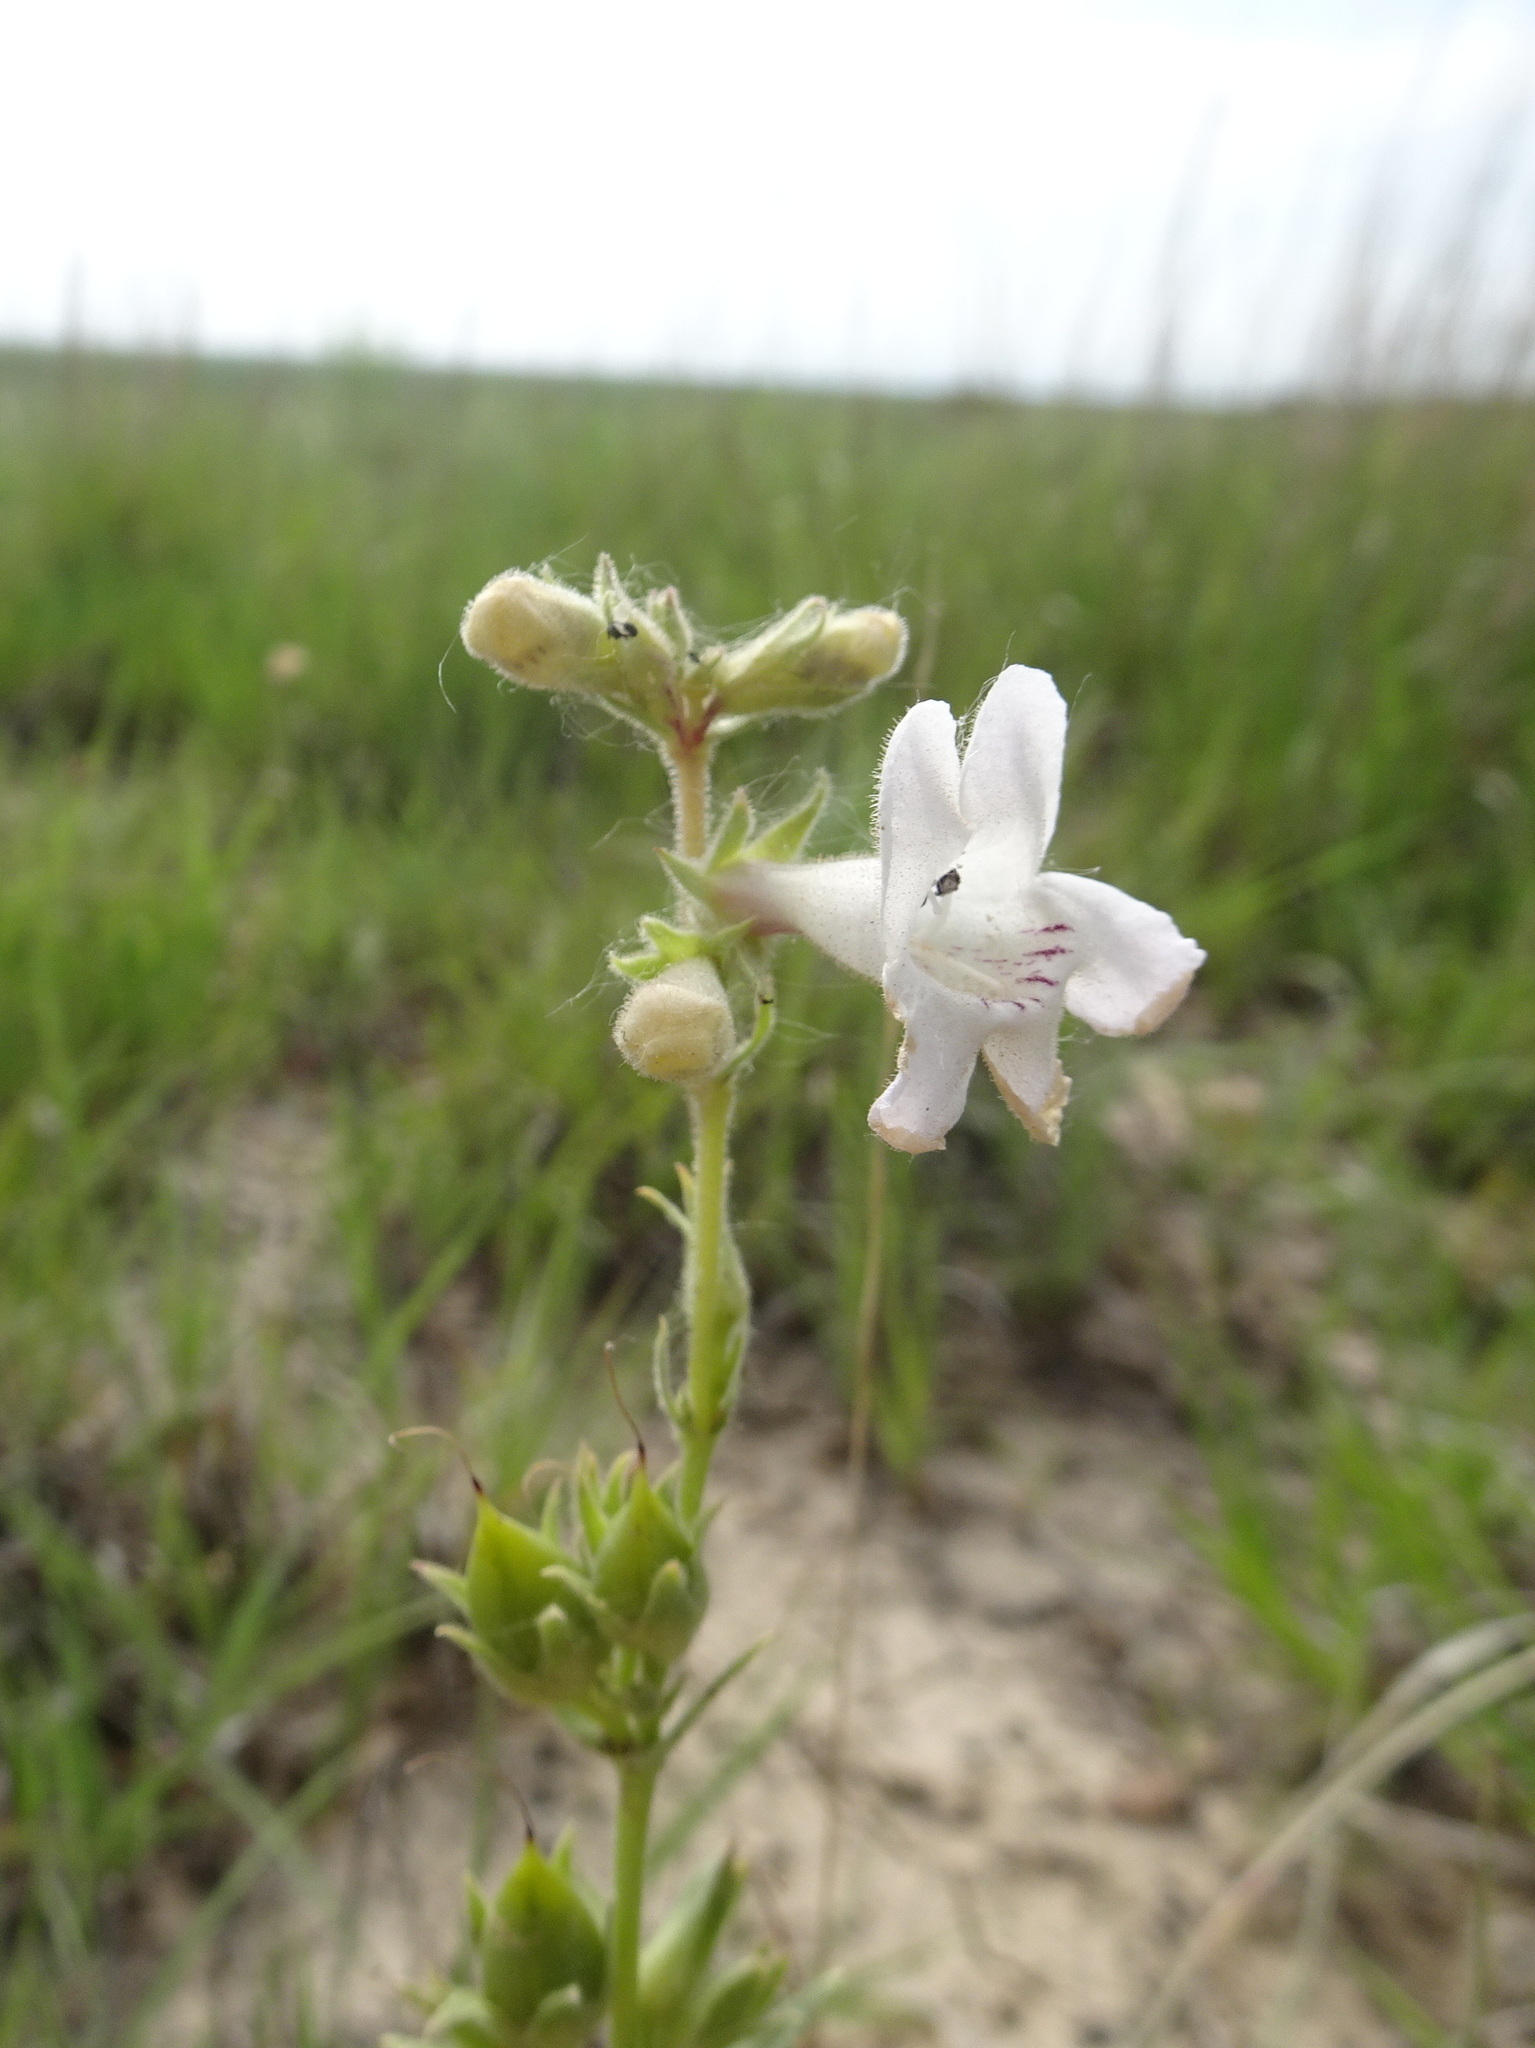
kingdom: Plantae
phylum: Tracheophyta
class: Magnoliopsida
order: Lamiales
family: Plantaginaceae
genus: Penstemon
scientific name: Penstemon albidus
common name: White beardtongue
